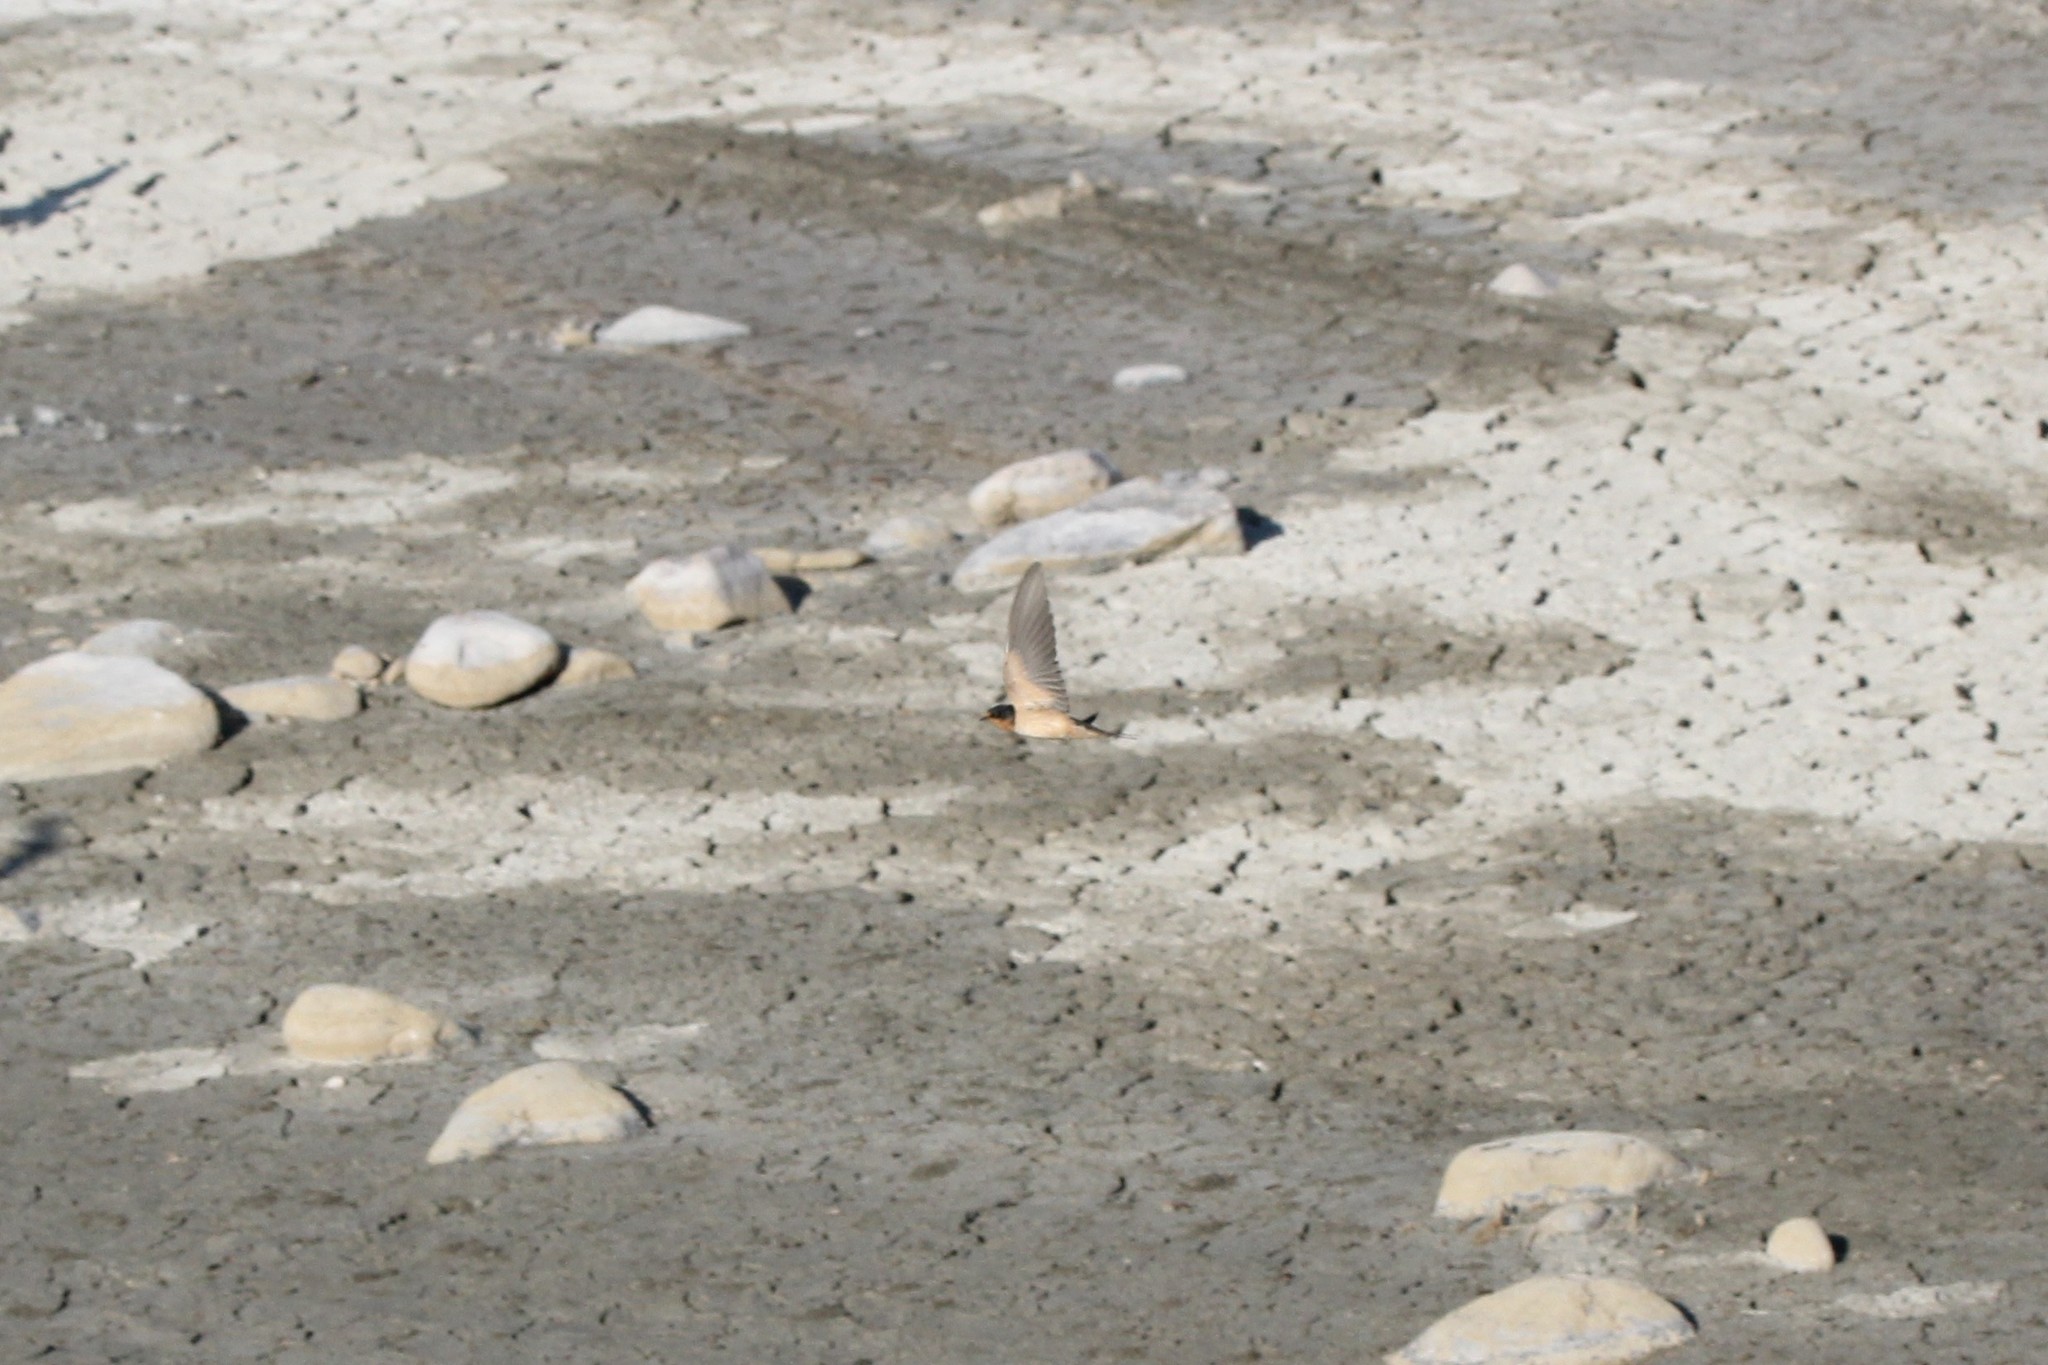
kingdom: Animalia
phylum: Chordata
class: Aves
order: Passeriformes
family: Hirundinidae
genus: Hirundo
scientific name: Hirundo rustica
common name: Barn swallow
